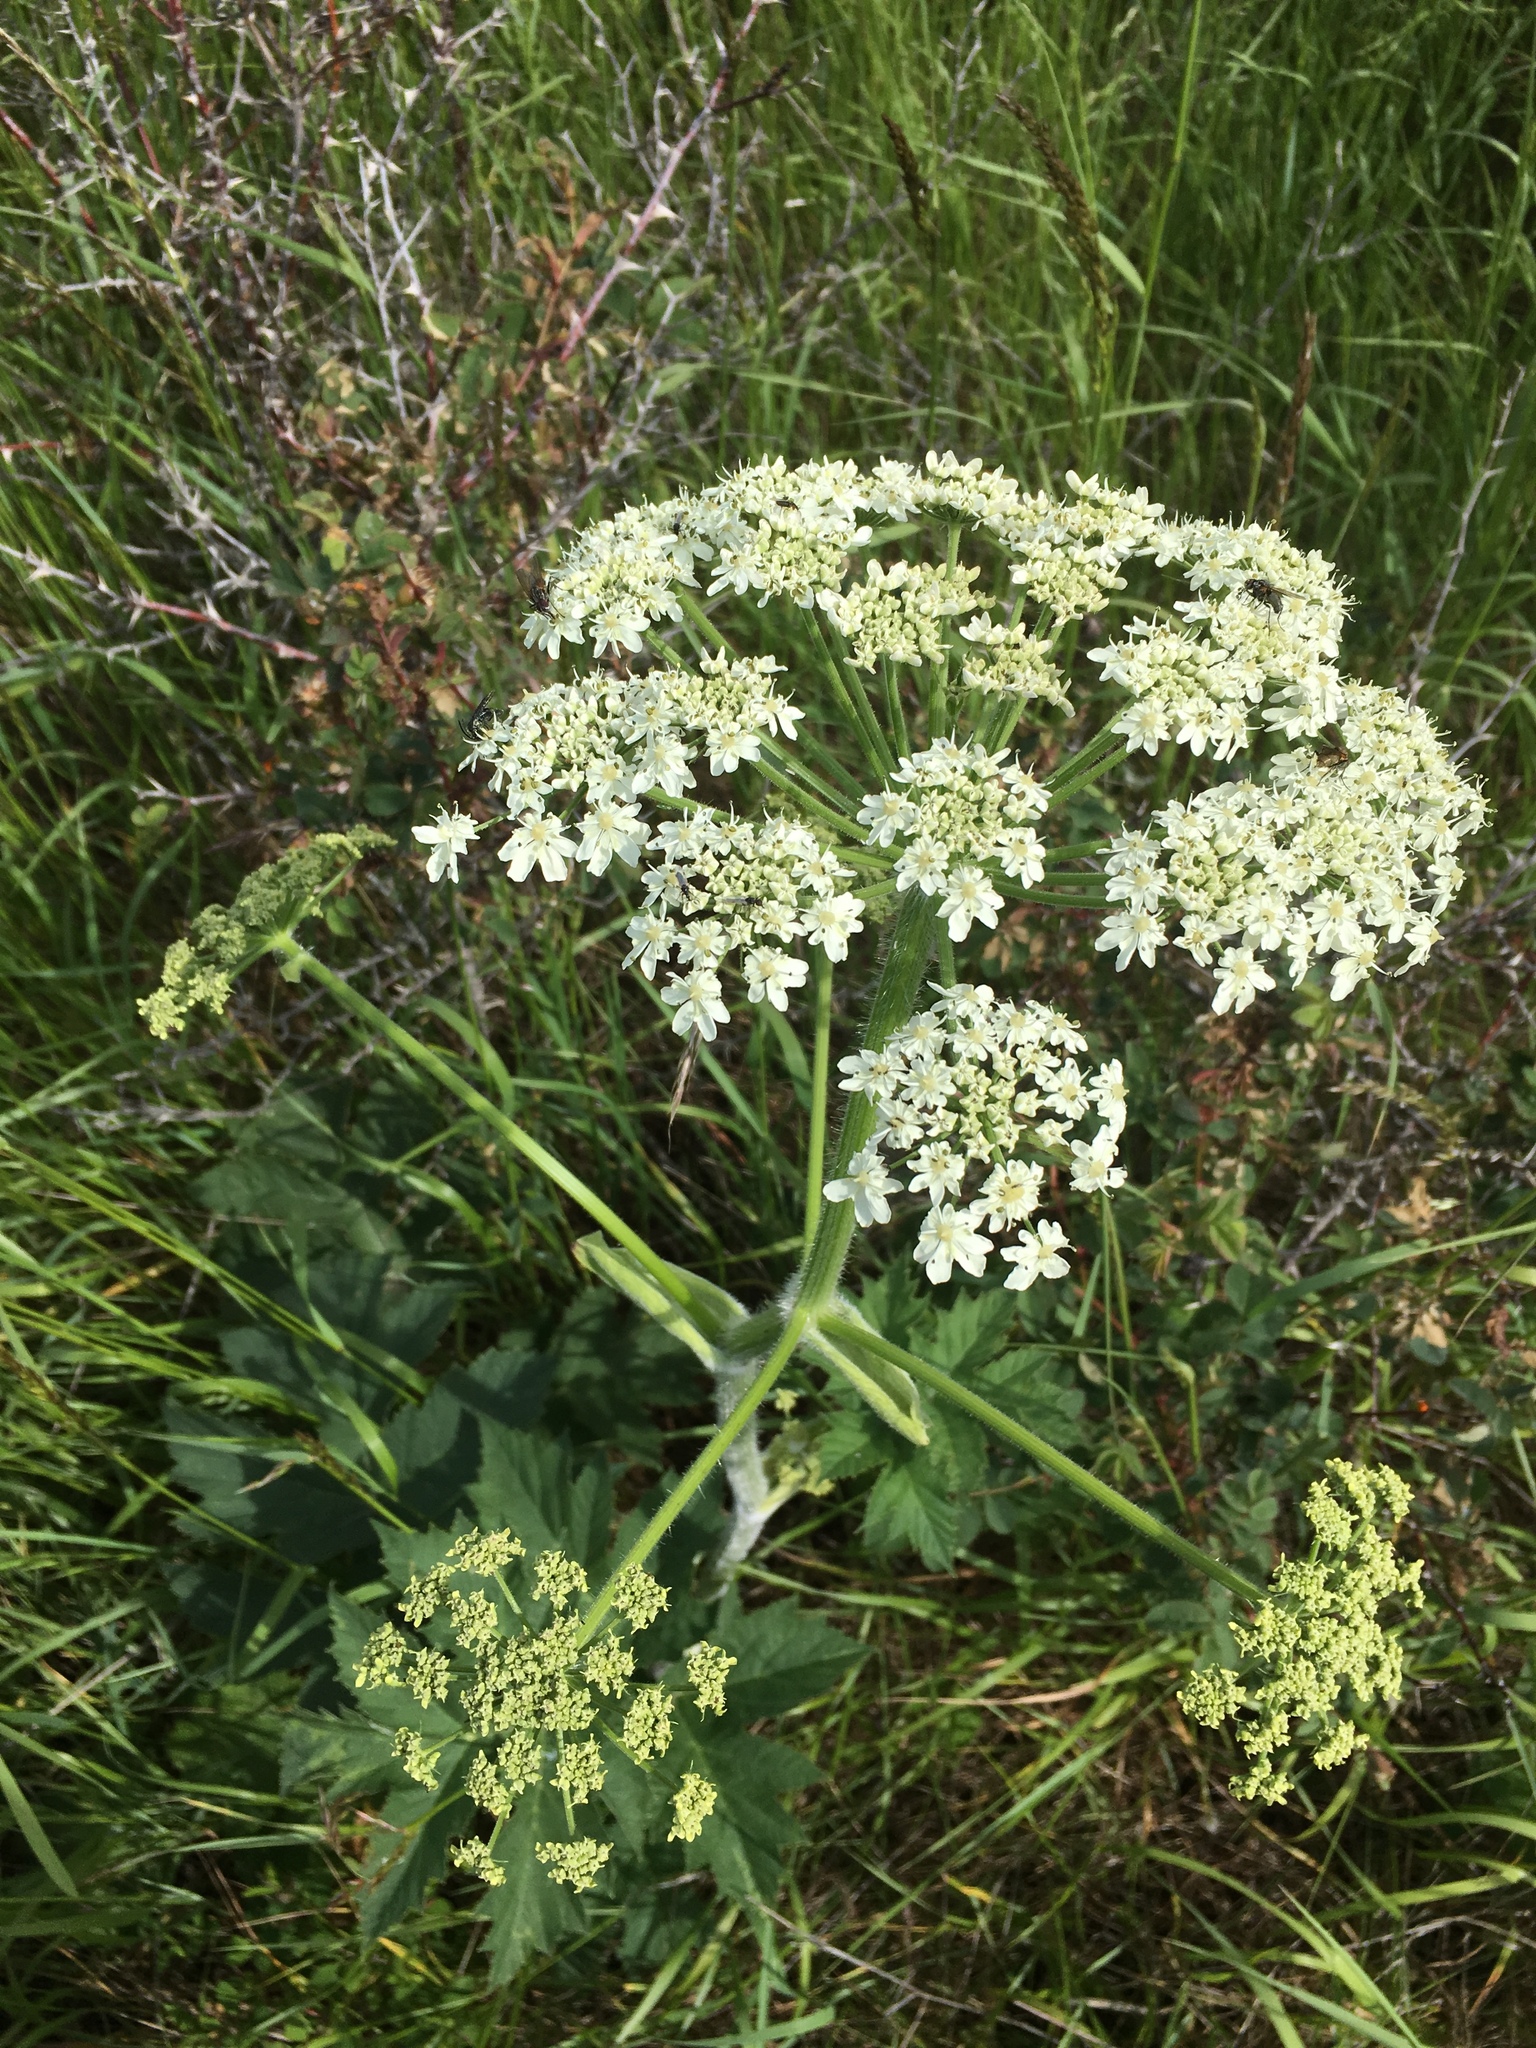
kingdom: Plantae
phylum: Tracheophyta
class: Magnoliopsida
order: Apiales
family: Apiaceae
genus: Heracleum
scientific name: Heracleum maximum
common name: American cow parsnip
